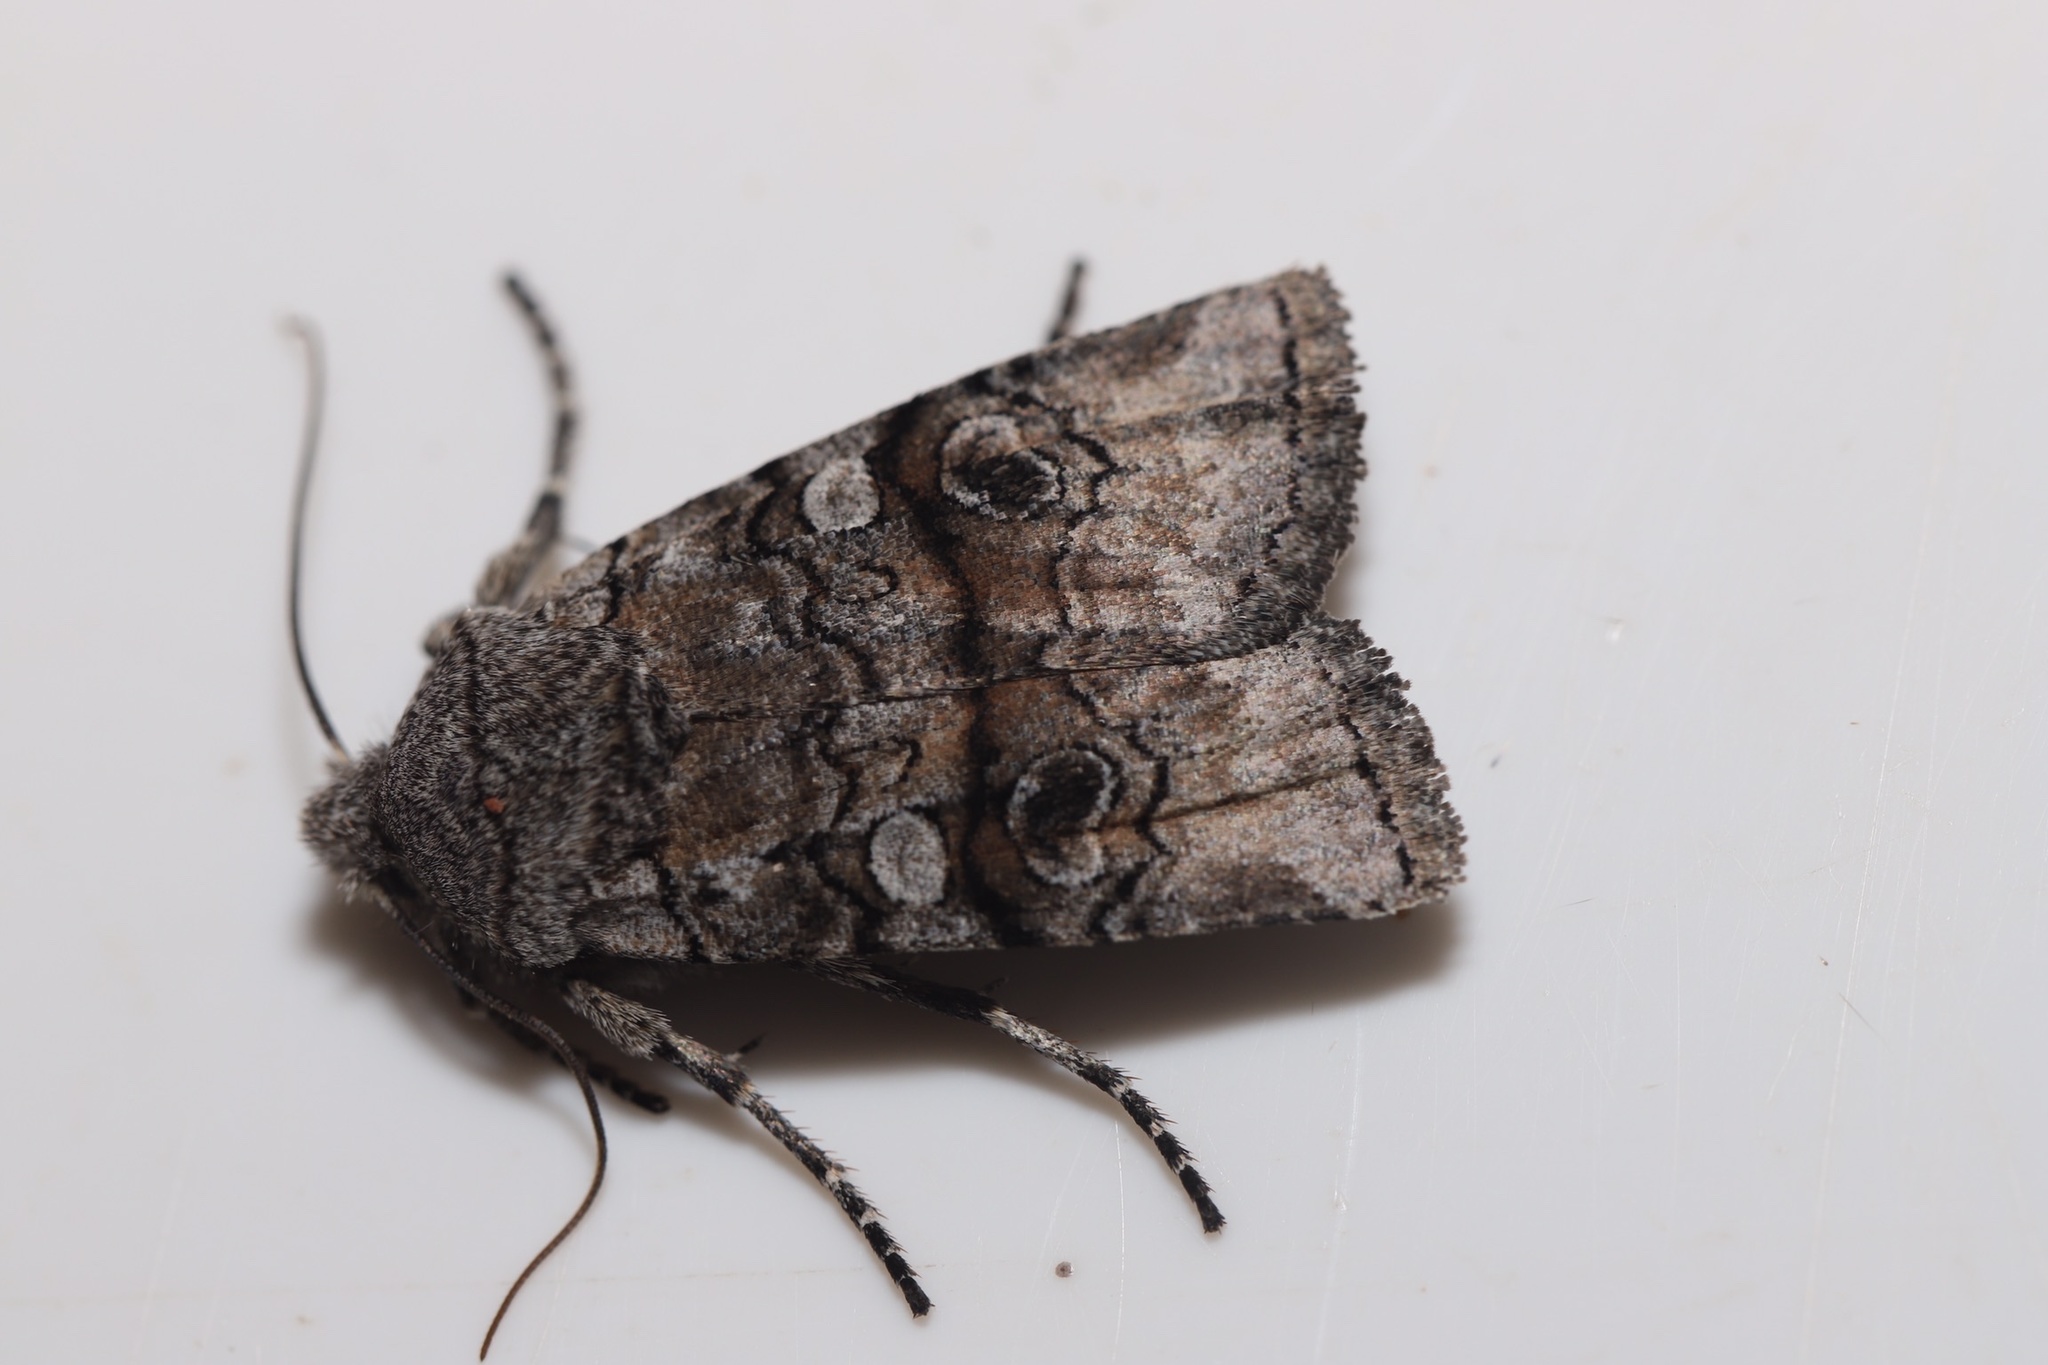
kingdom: Animalia
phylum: Arthropoda
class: Insecta
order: Lepidoptera
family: Noctuidae
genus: Litholomia
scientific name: Litholomia napaea
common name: False pinion moth
